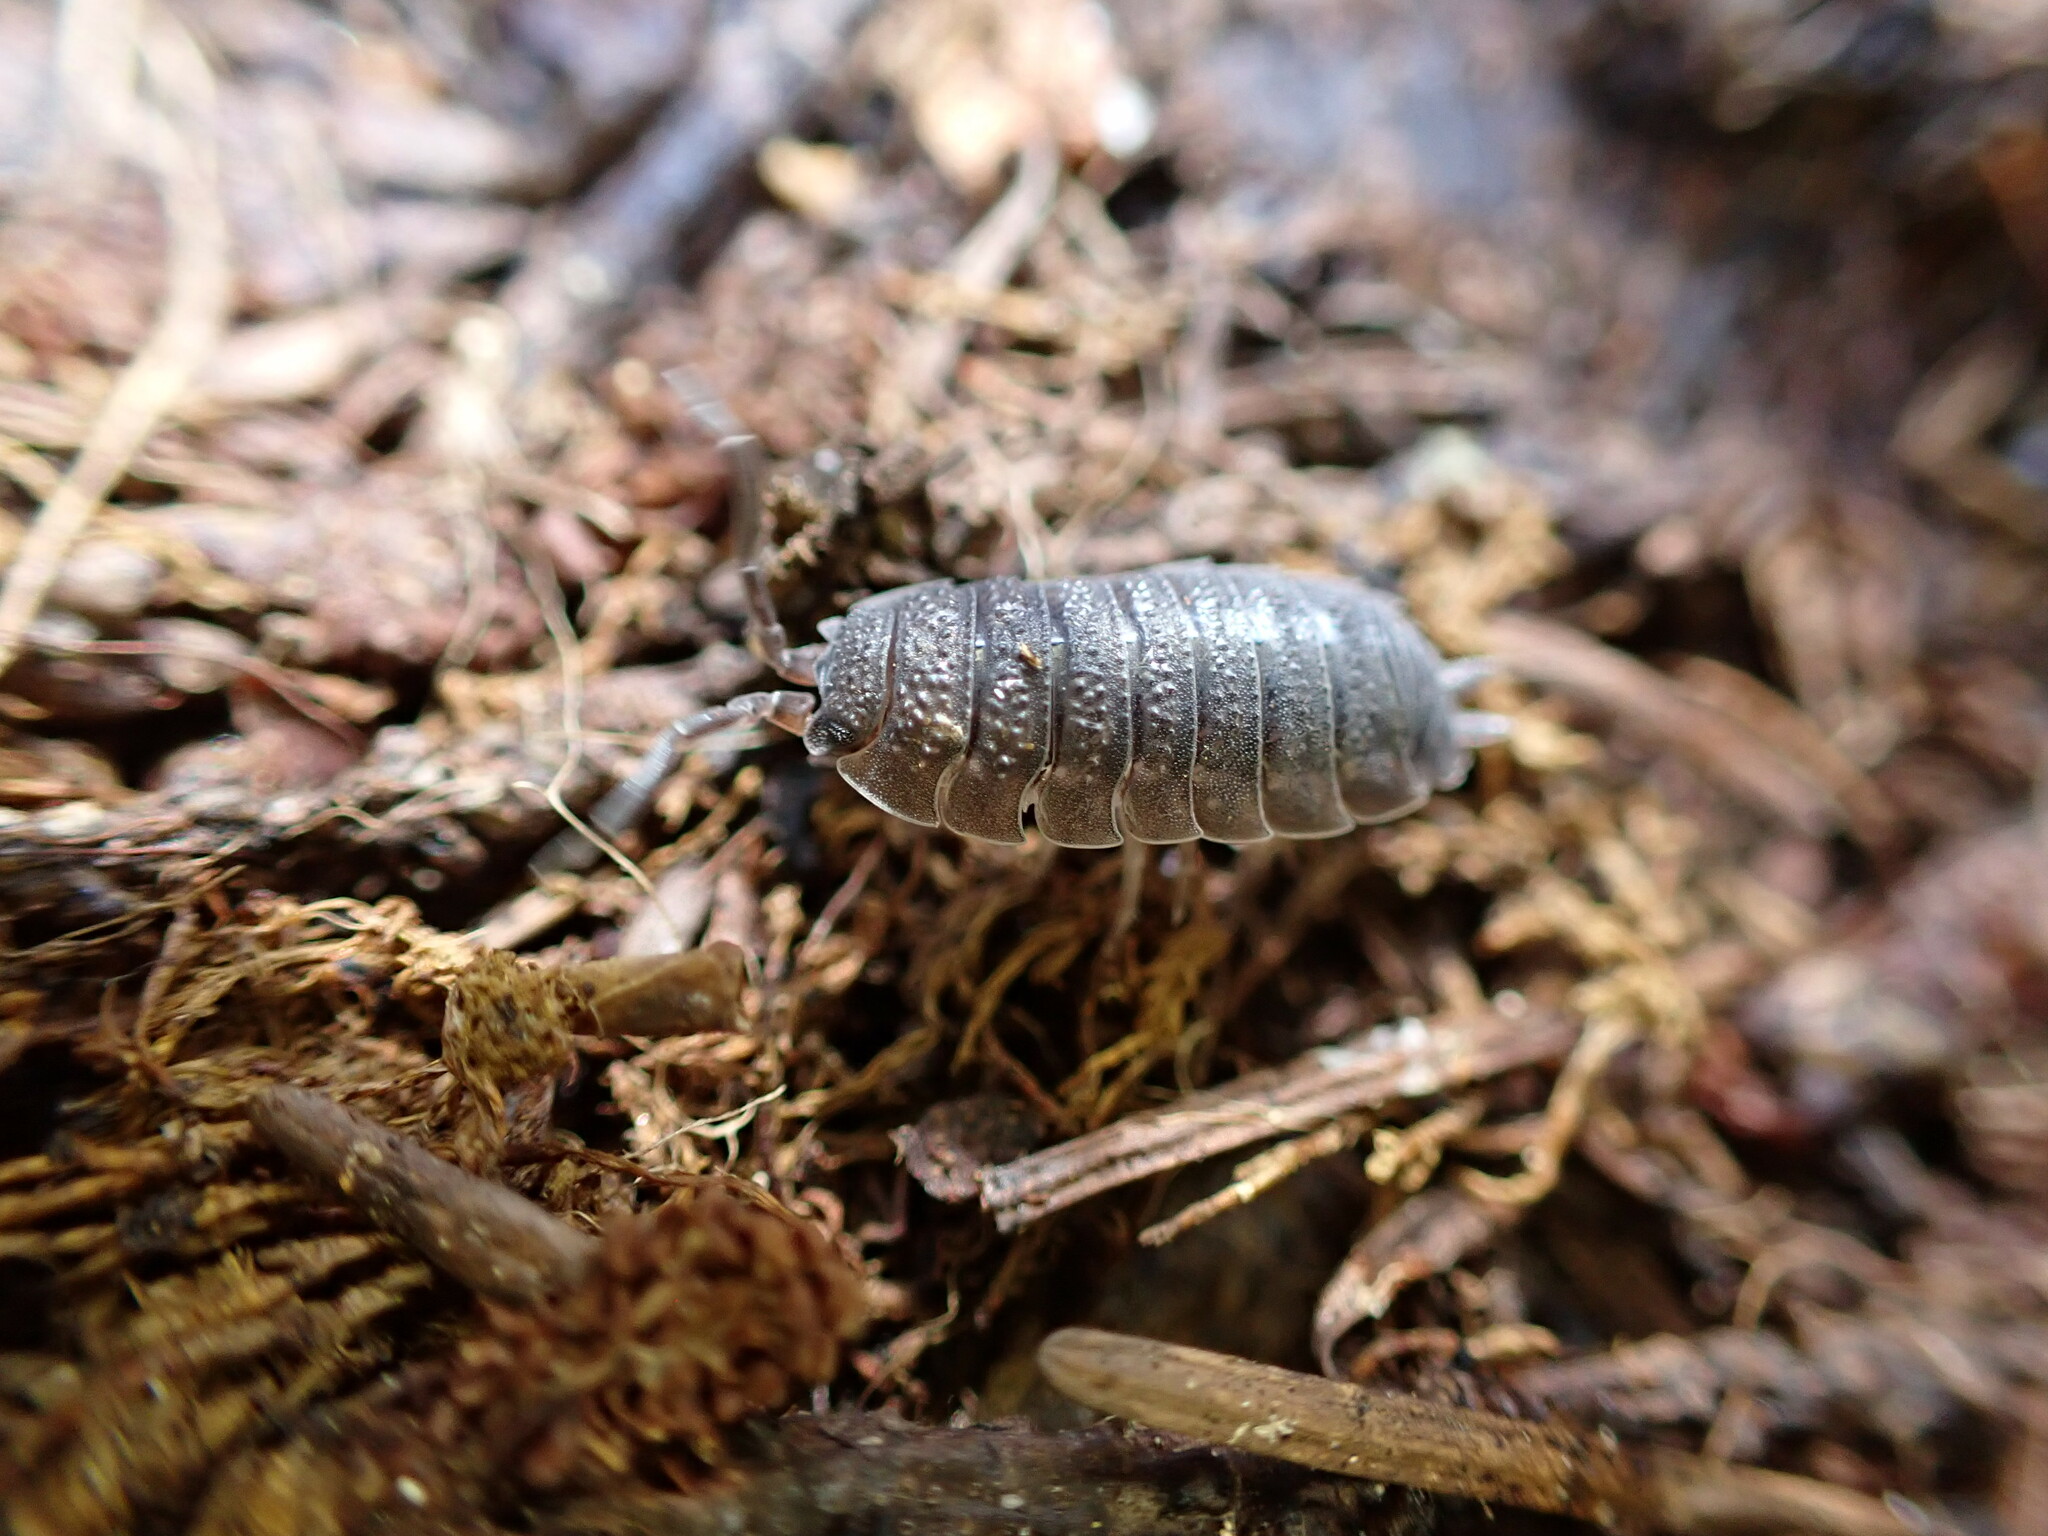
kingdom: Animalia
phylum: Arthropoda
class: Malacostraca
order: Isopoda
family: Porcellionidae
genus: Porcellio
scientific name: Porcellio scaber
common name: Common rough woodlouse
